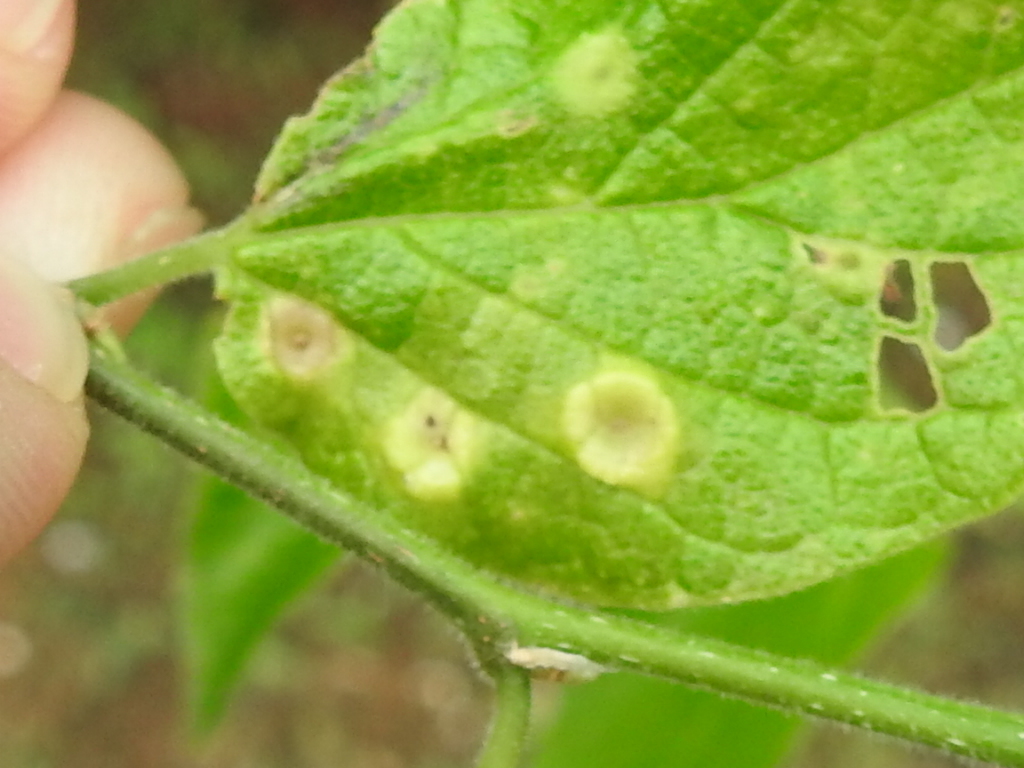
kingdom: Animalia
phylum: Arthropoda
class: Insecta
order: Hemiptera
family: Aphalaridae
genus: Pachypsylla
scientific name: Pachypsylla celtidismamma
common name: Hackberry nipplegall psyllid
